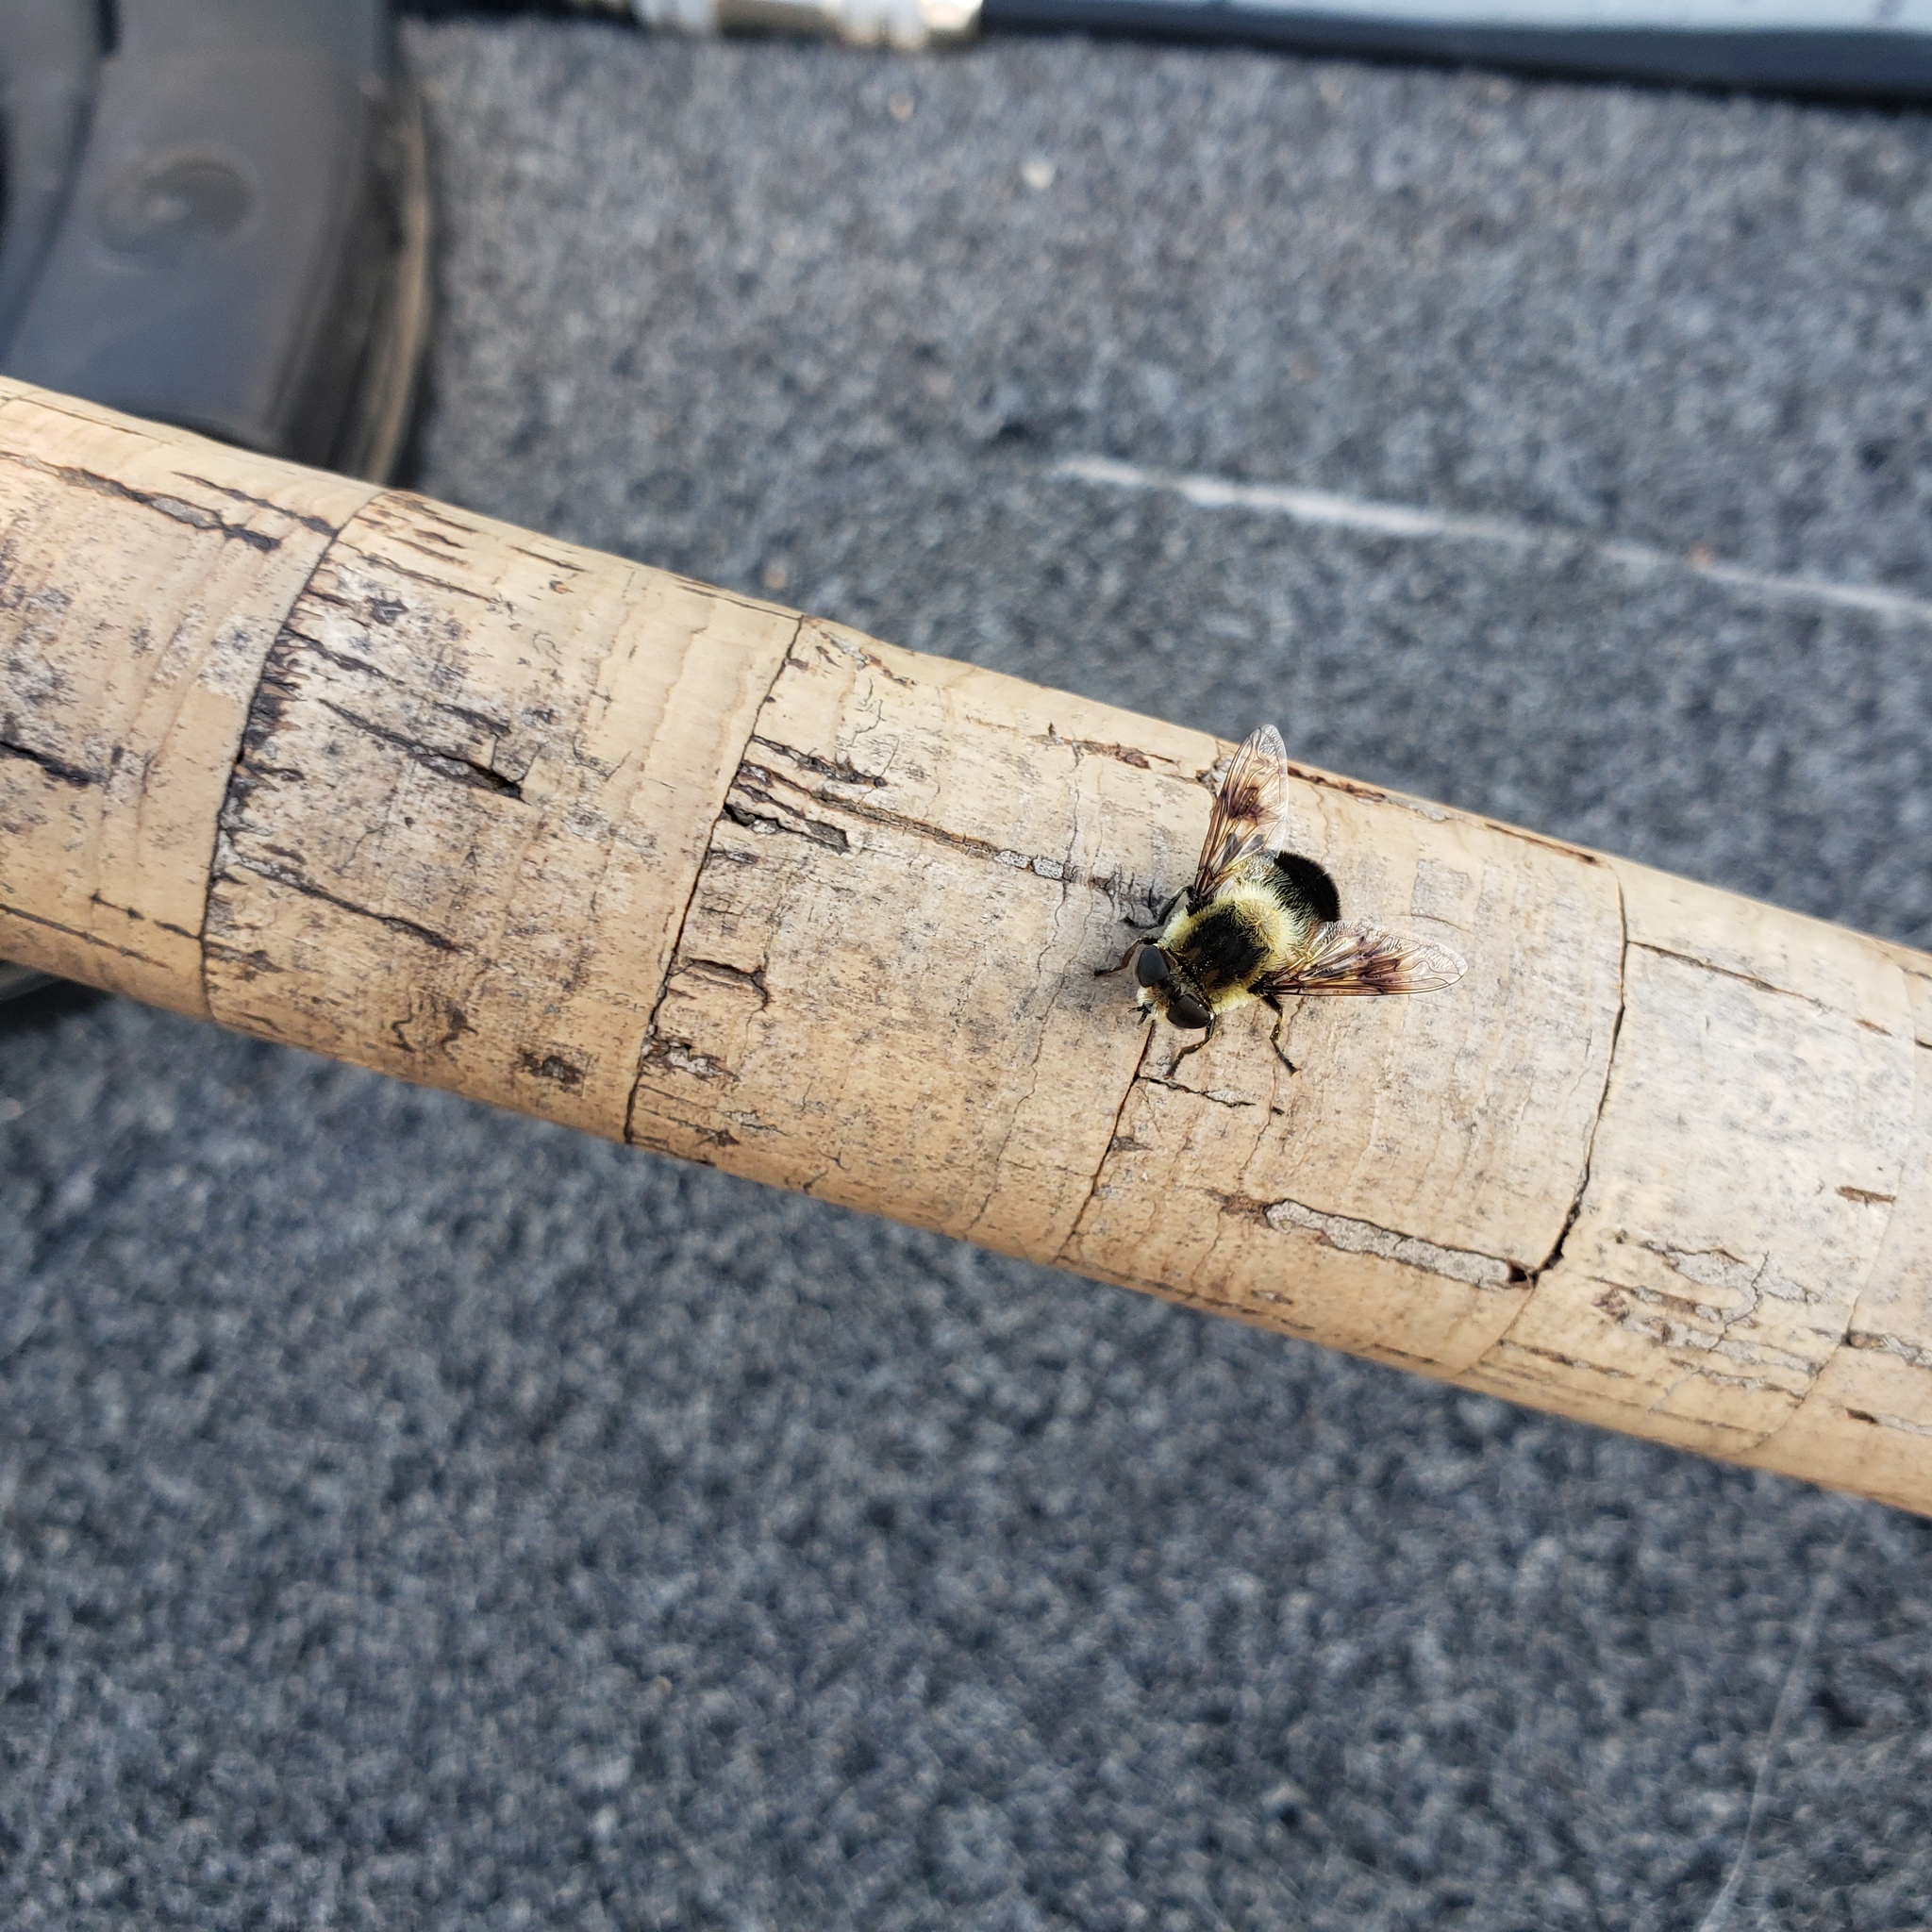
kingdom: Animalia
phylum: Arthropoda
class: Insecta
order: Diptera
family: Syrphidae
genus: Eristalis
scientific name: Eristalis anthophorina
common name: Orange-spotted drone fly
